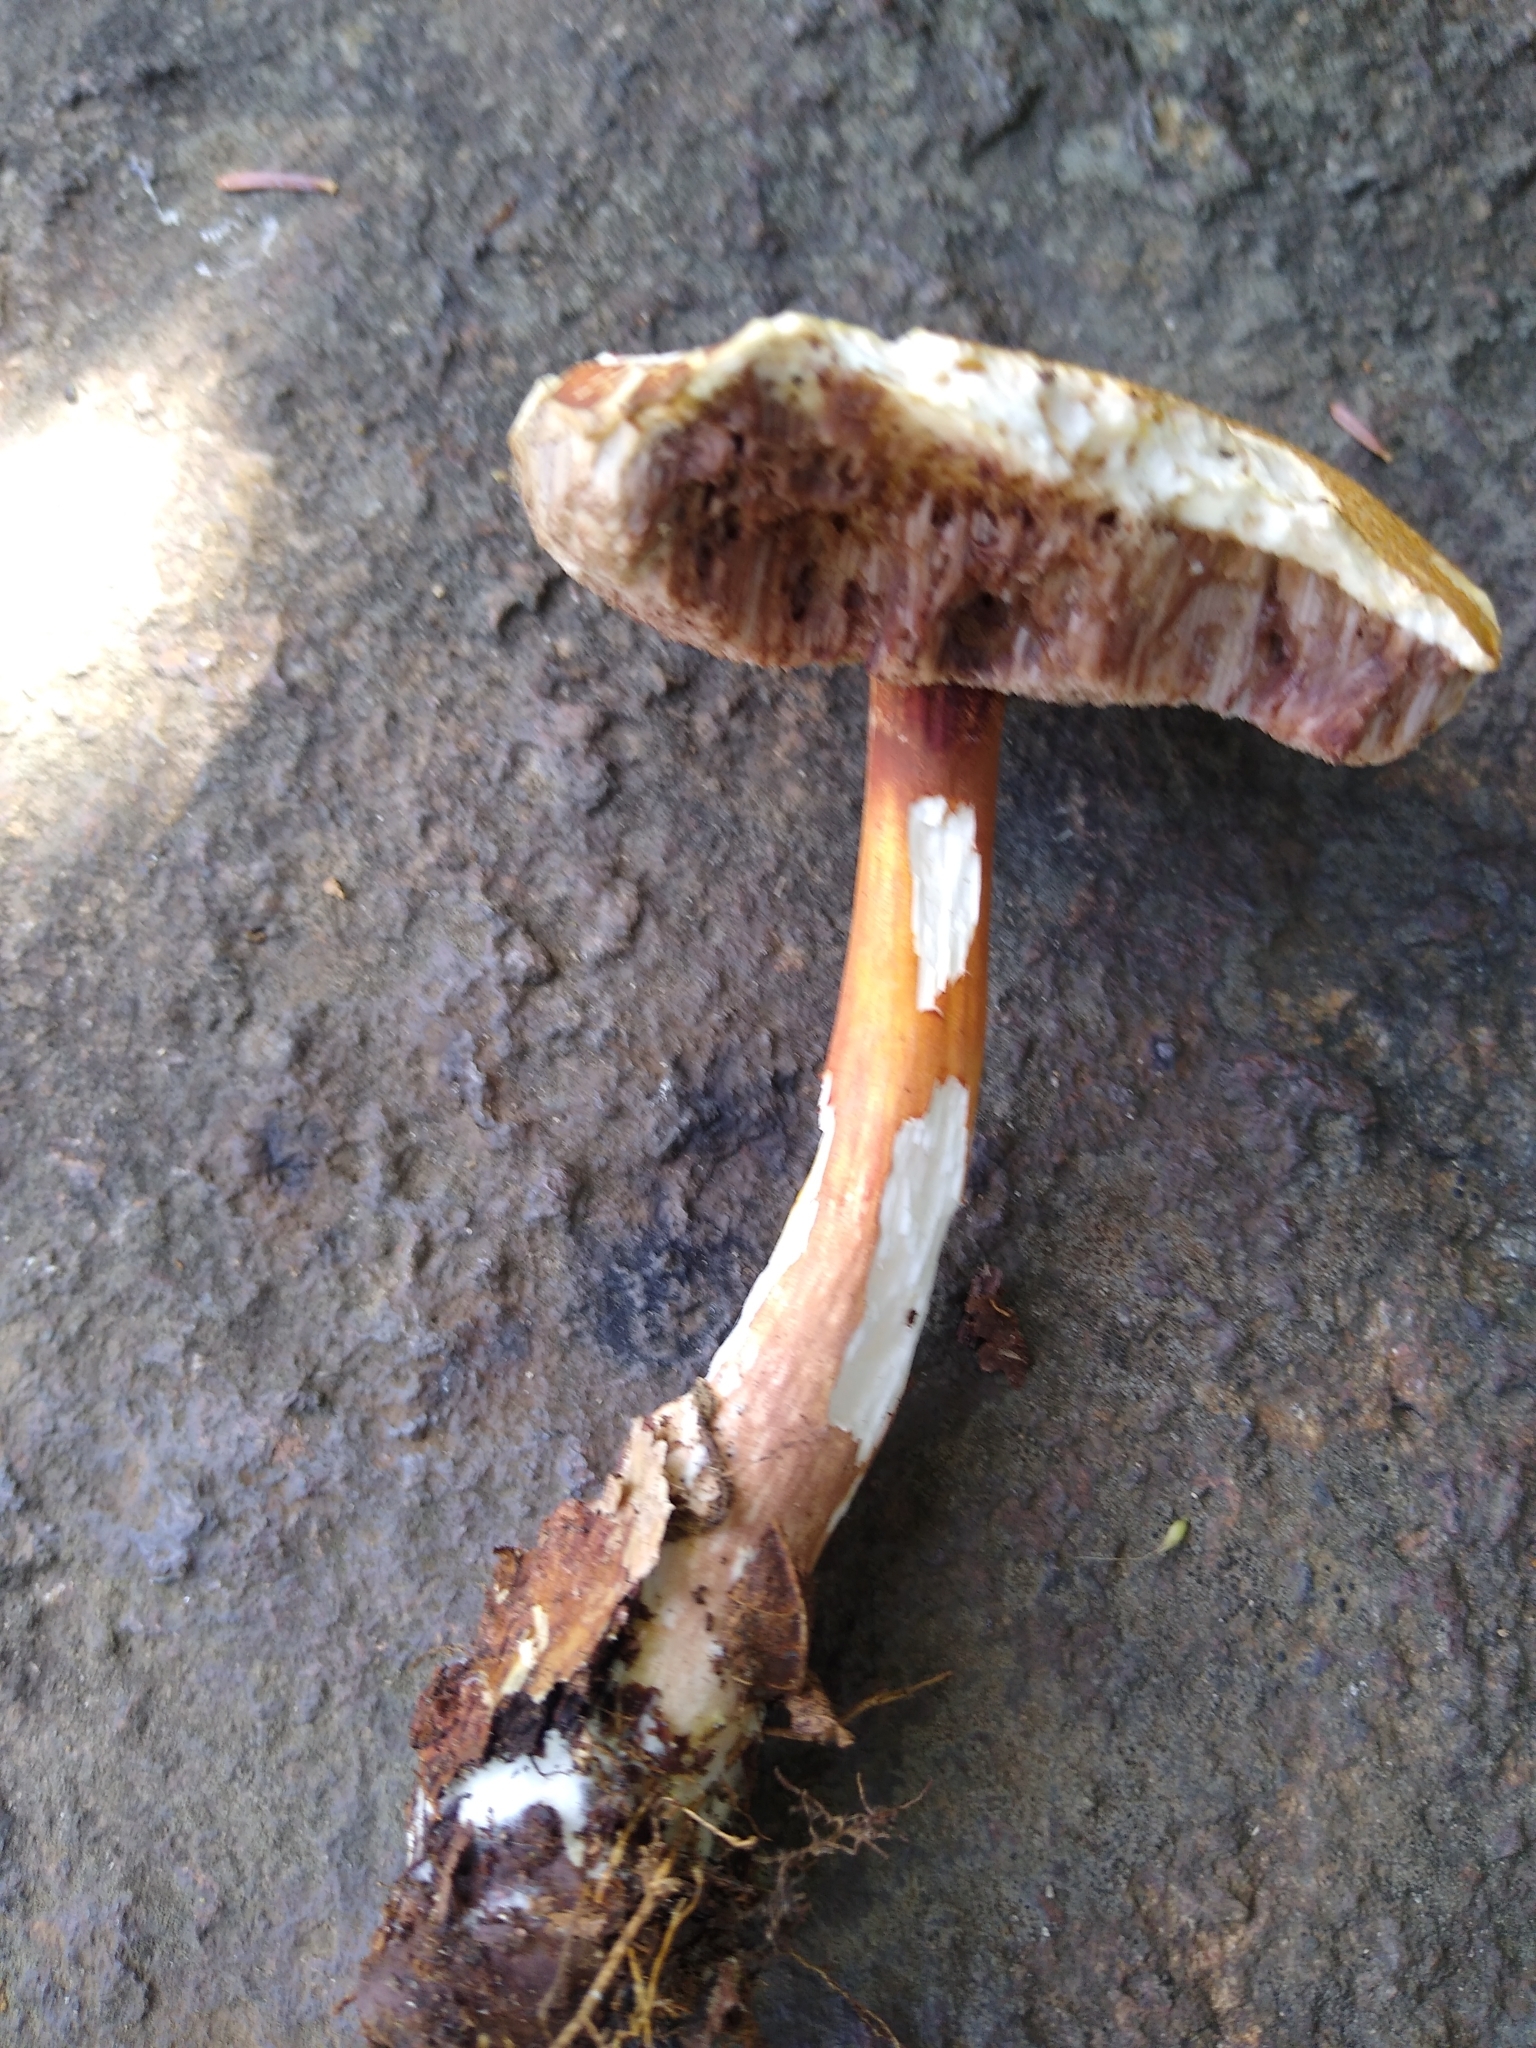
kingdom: Fungi
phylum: Basidiomycota
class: Agaricomycetes
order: Boletales
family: Boletaceae
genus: Austroboletus
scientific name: Austroboletus gracilis
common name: Graceful bolete
